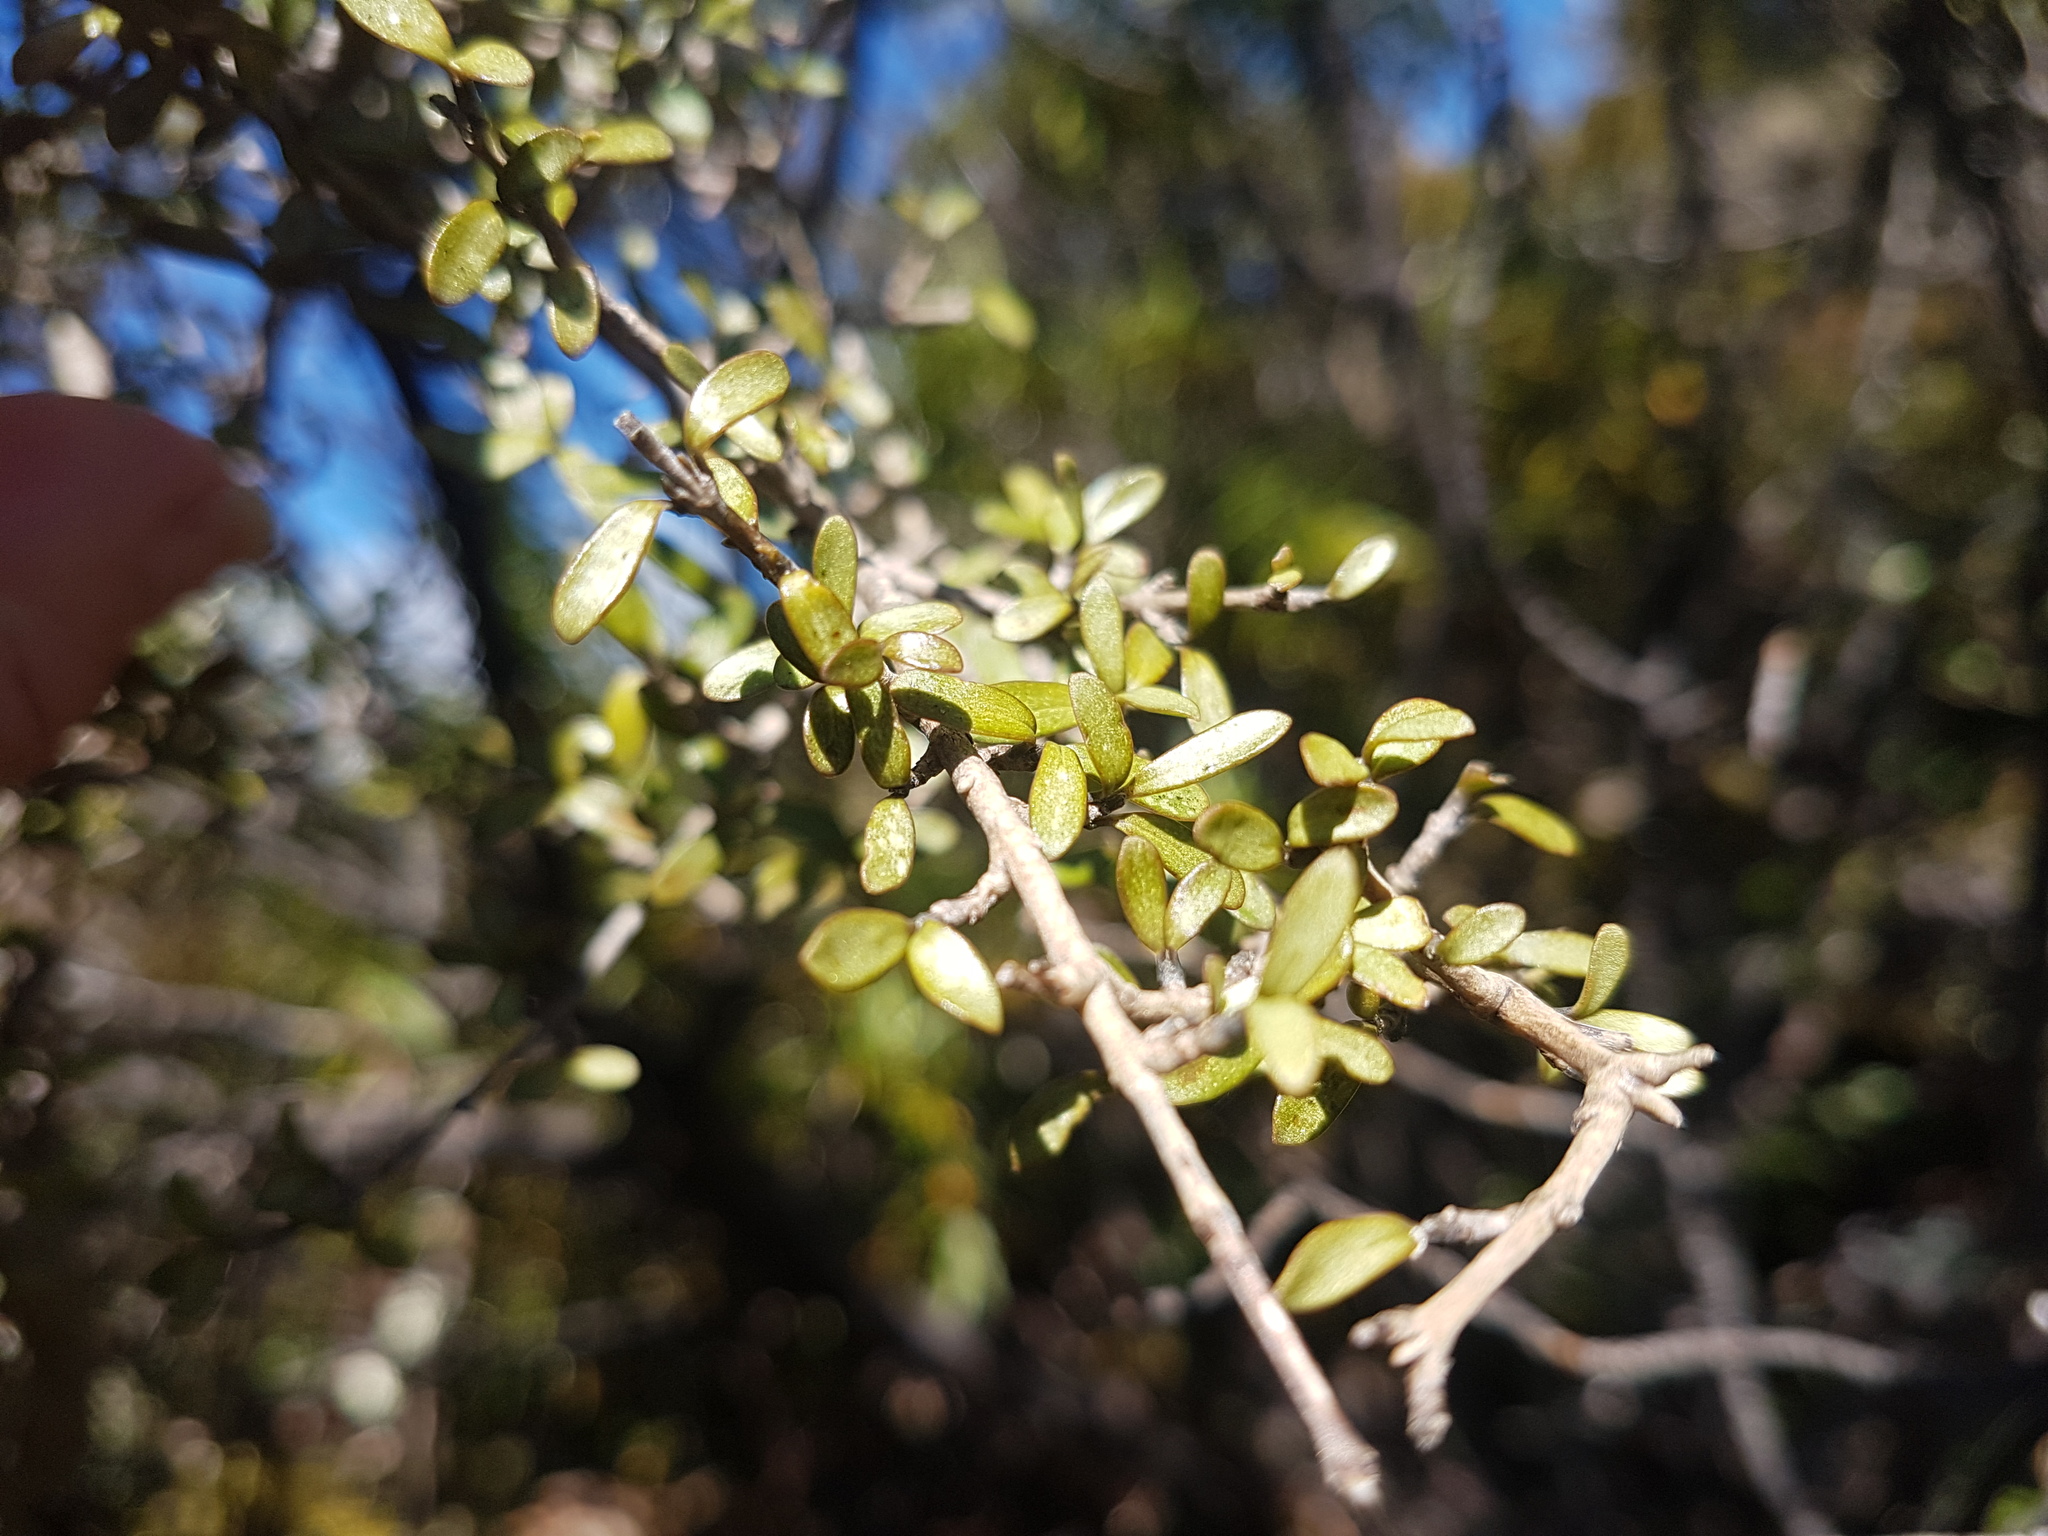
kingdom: Plantae
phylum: Tracheophyta
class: Magnoliopsida
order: Gentianales
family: Rubiaceae
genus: Coprosma
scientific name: Coprosma dumosa
